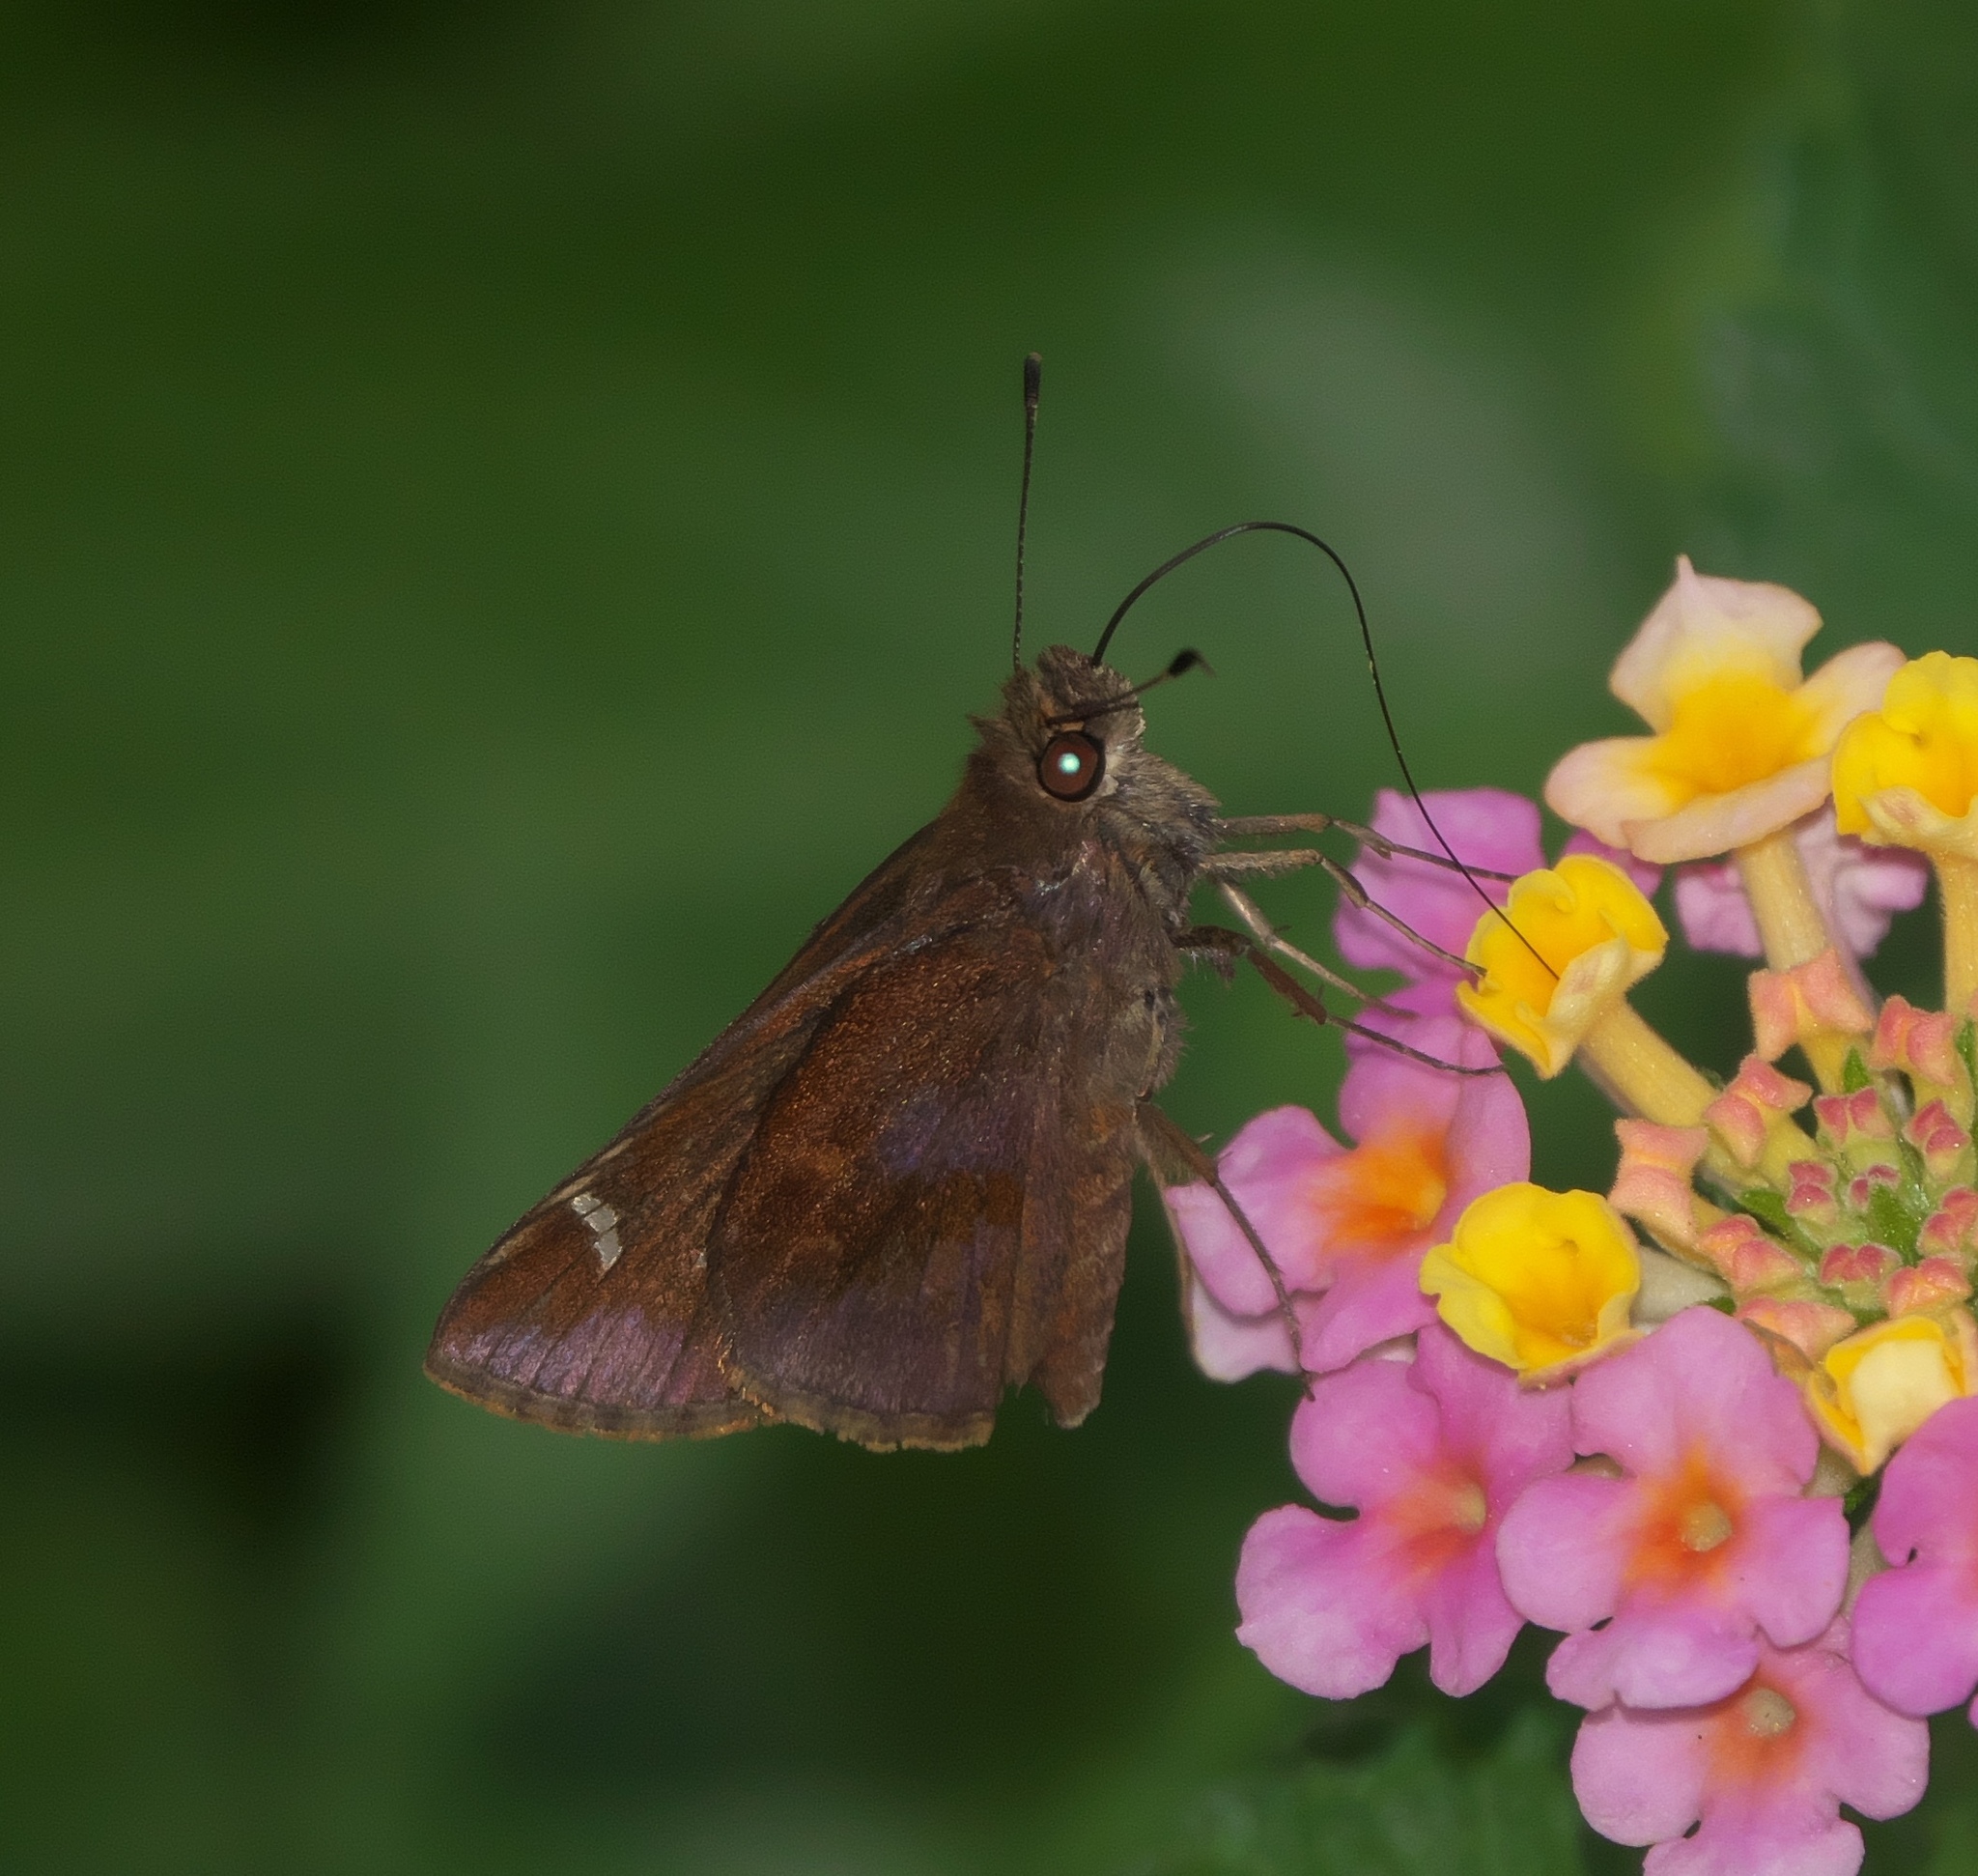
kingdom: Animalia
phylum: Arthropoda
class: Insecta
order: Lepidoptera
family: Hesperiidae
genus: Lerema
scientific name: Lerema accius
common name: Clouded skipper
